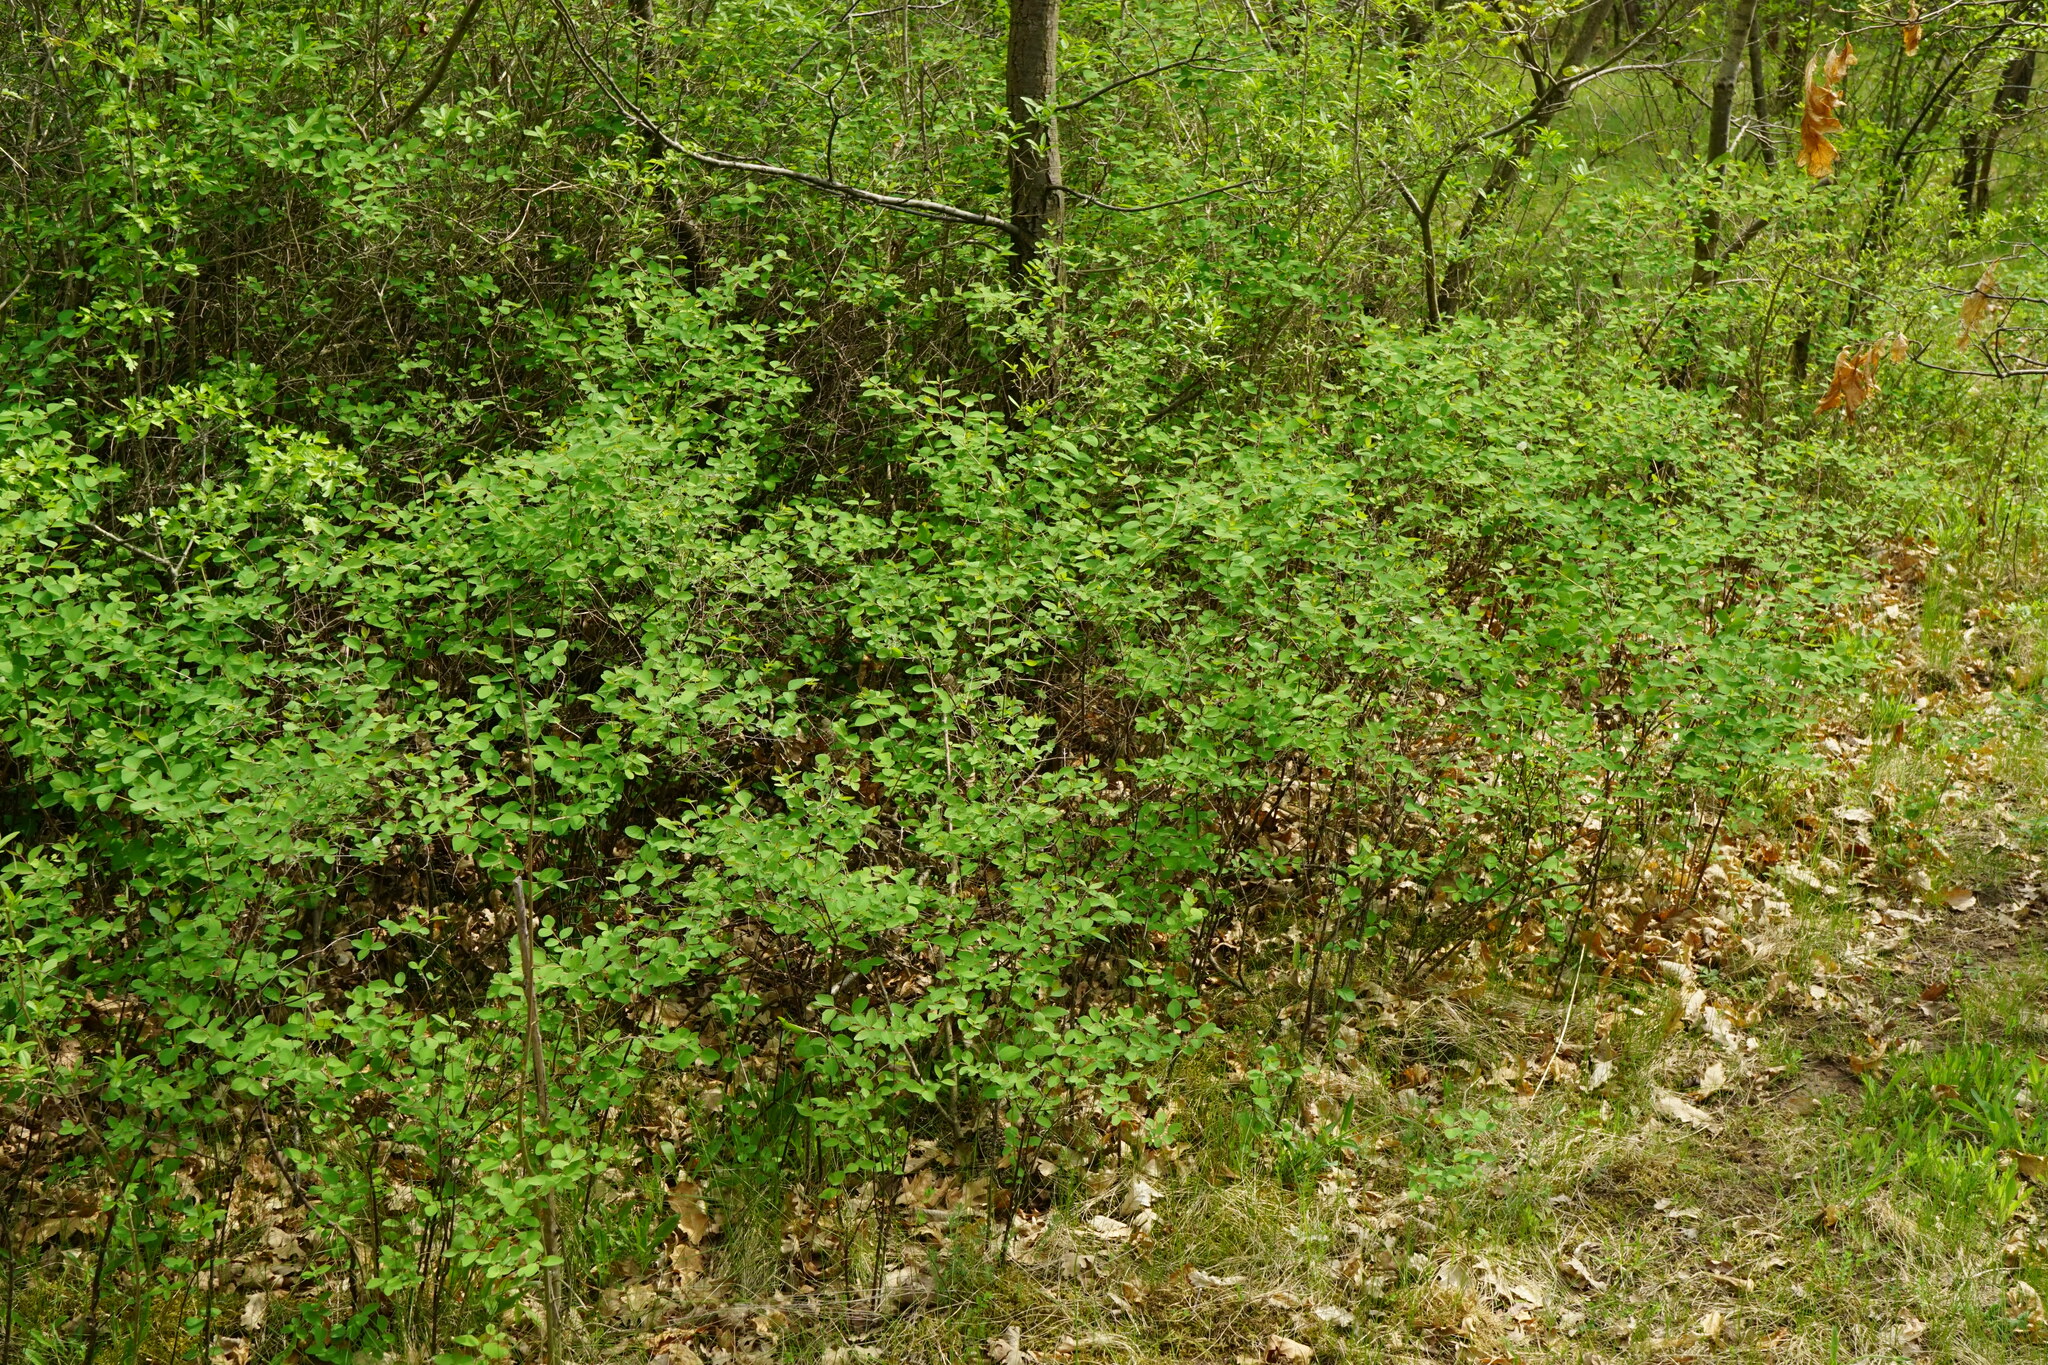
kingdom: Plantae
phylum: Tracheophyta
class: Magnoliopsida
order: Dipsacales
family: Caprifoliaceae
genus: Symphoricarpos
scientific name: Symphoricarpos albus
